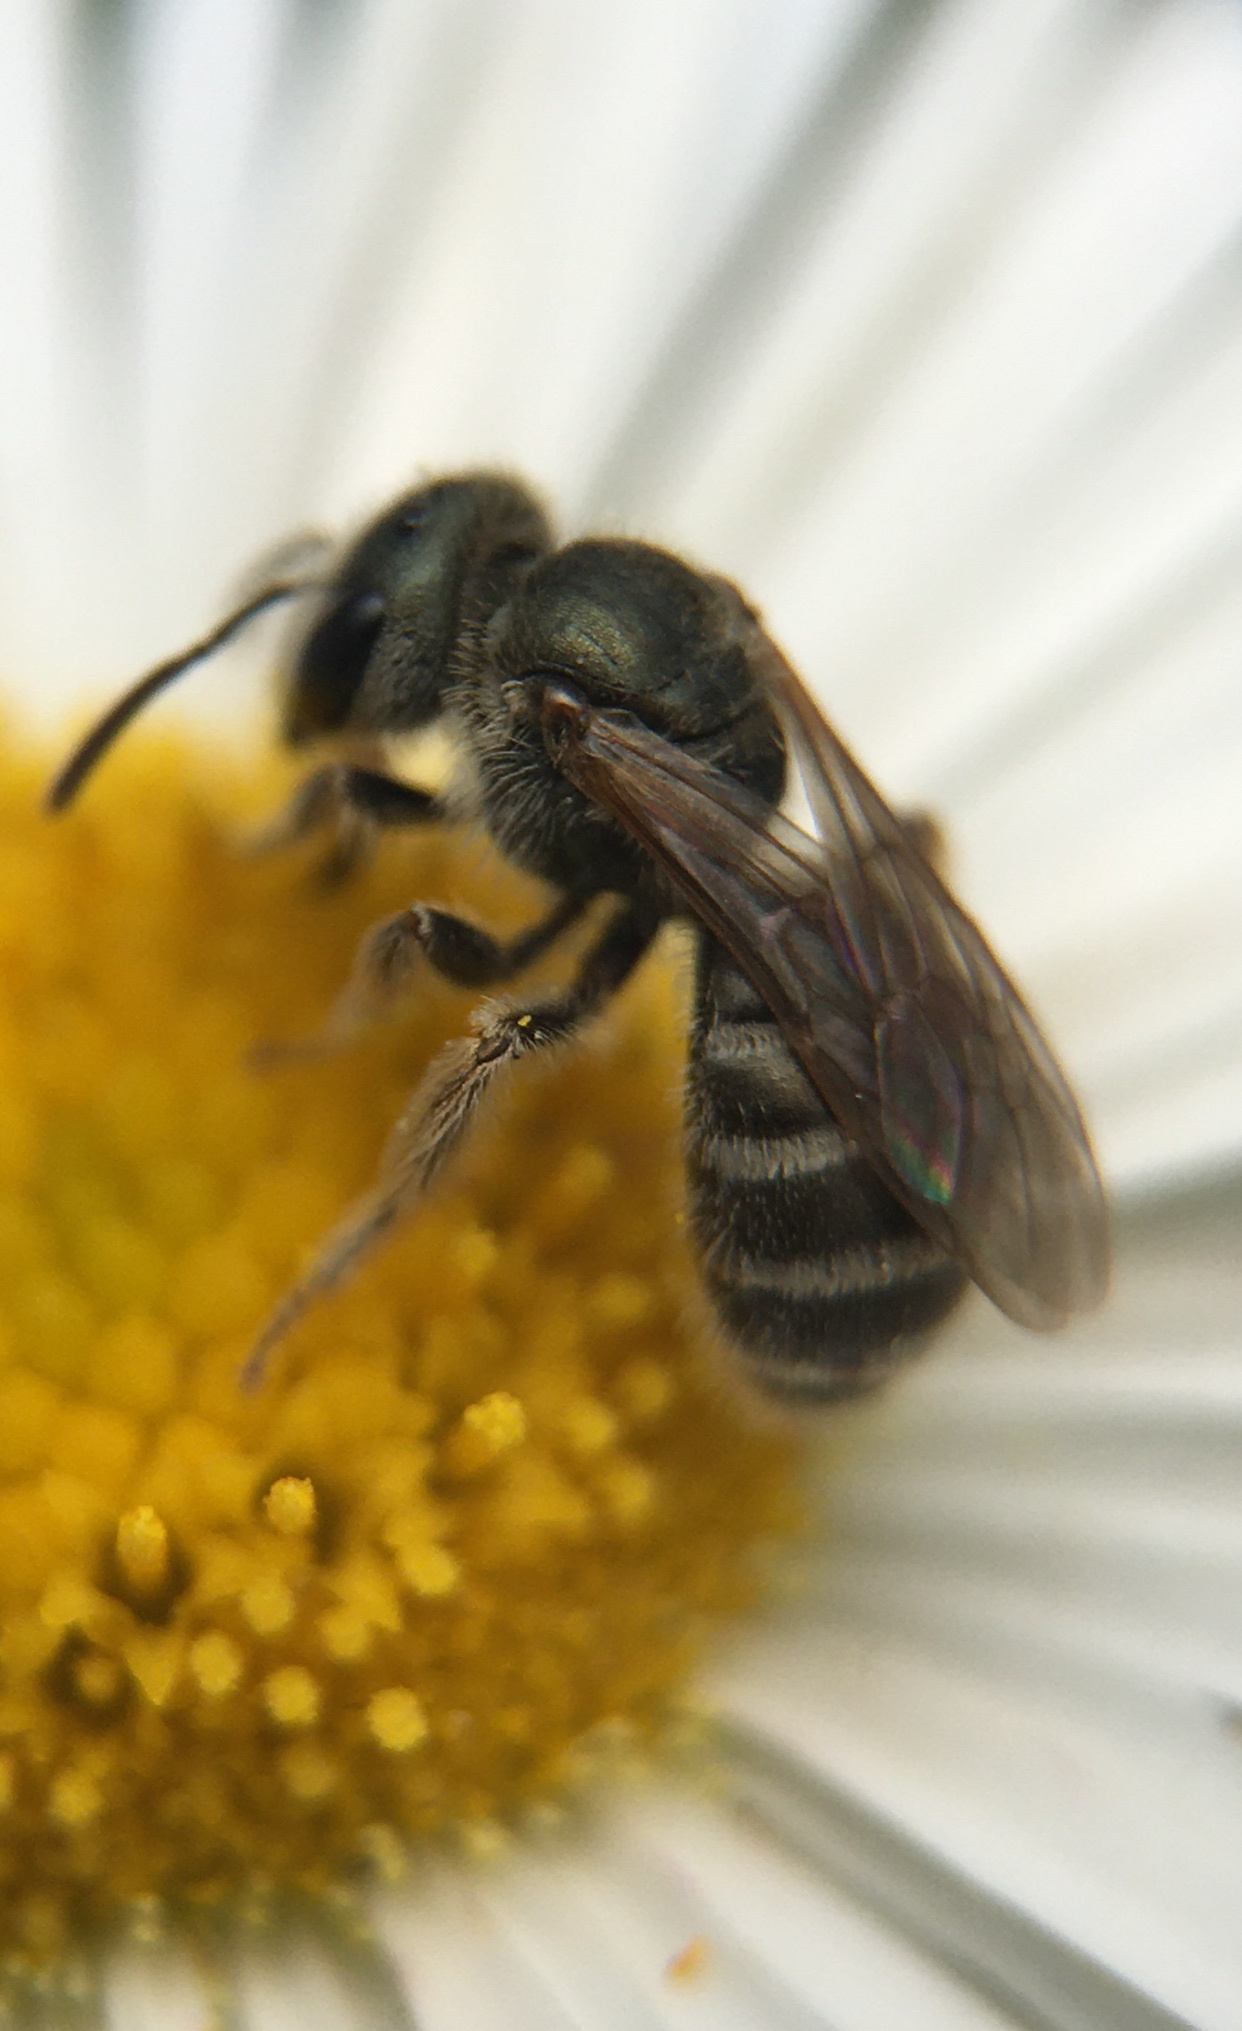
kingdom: Animalia
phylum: Arthropoda
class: Insecta
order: Hymenoptera
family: Halictidae
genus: Halictus
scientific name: Halictus tripartitus
